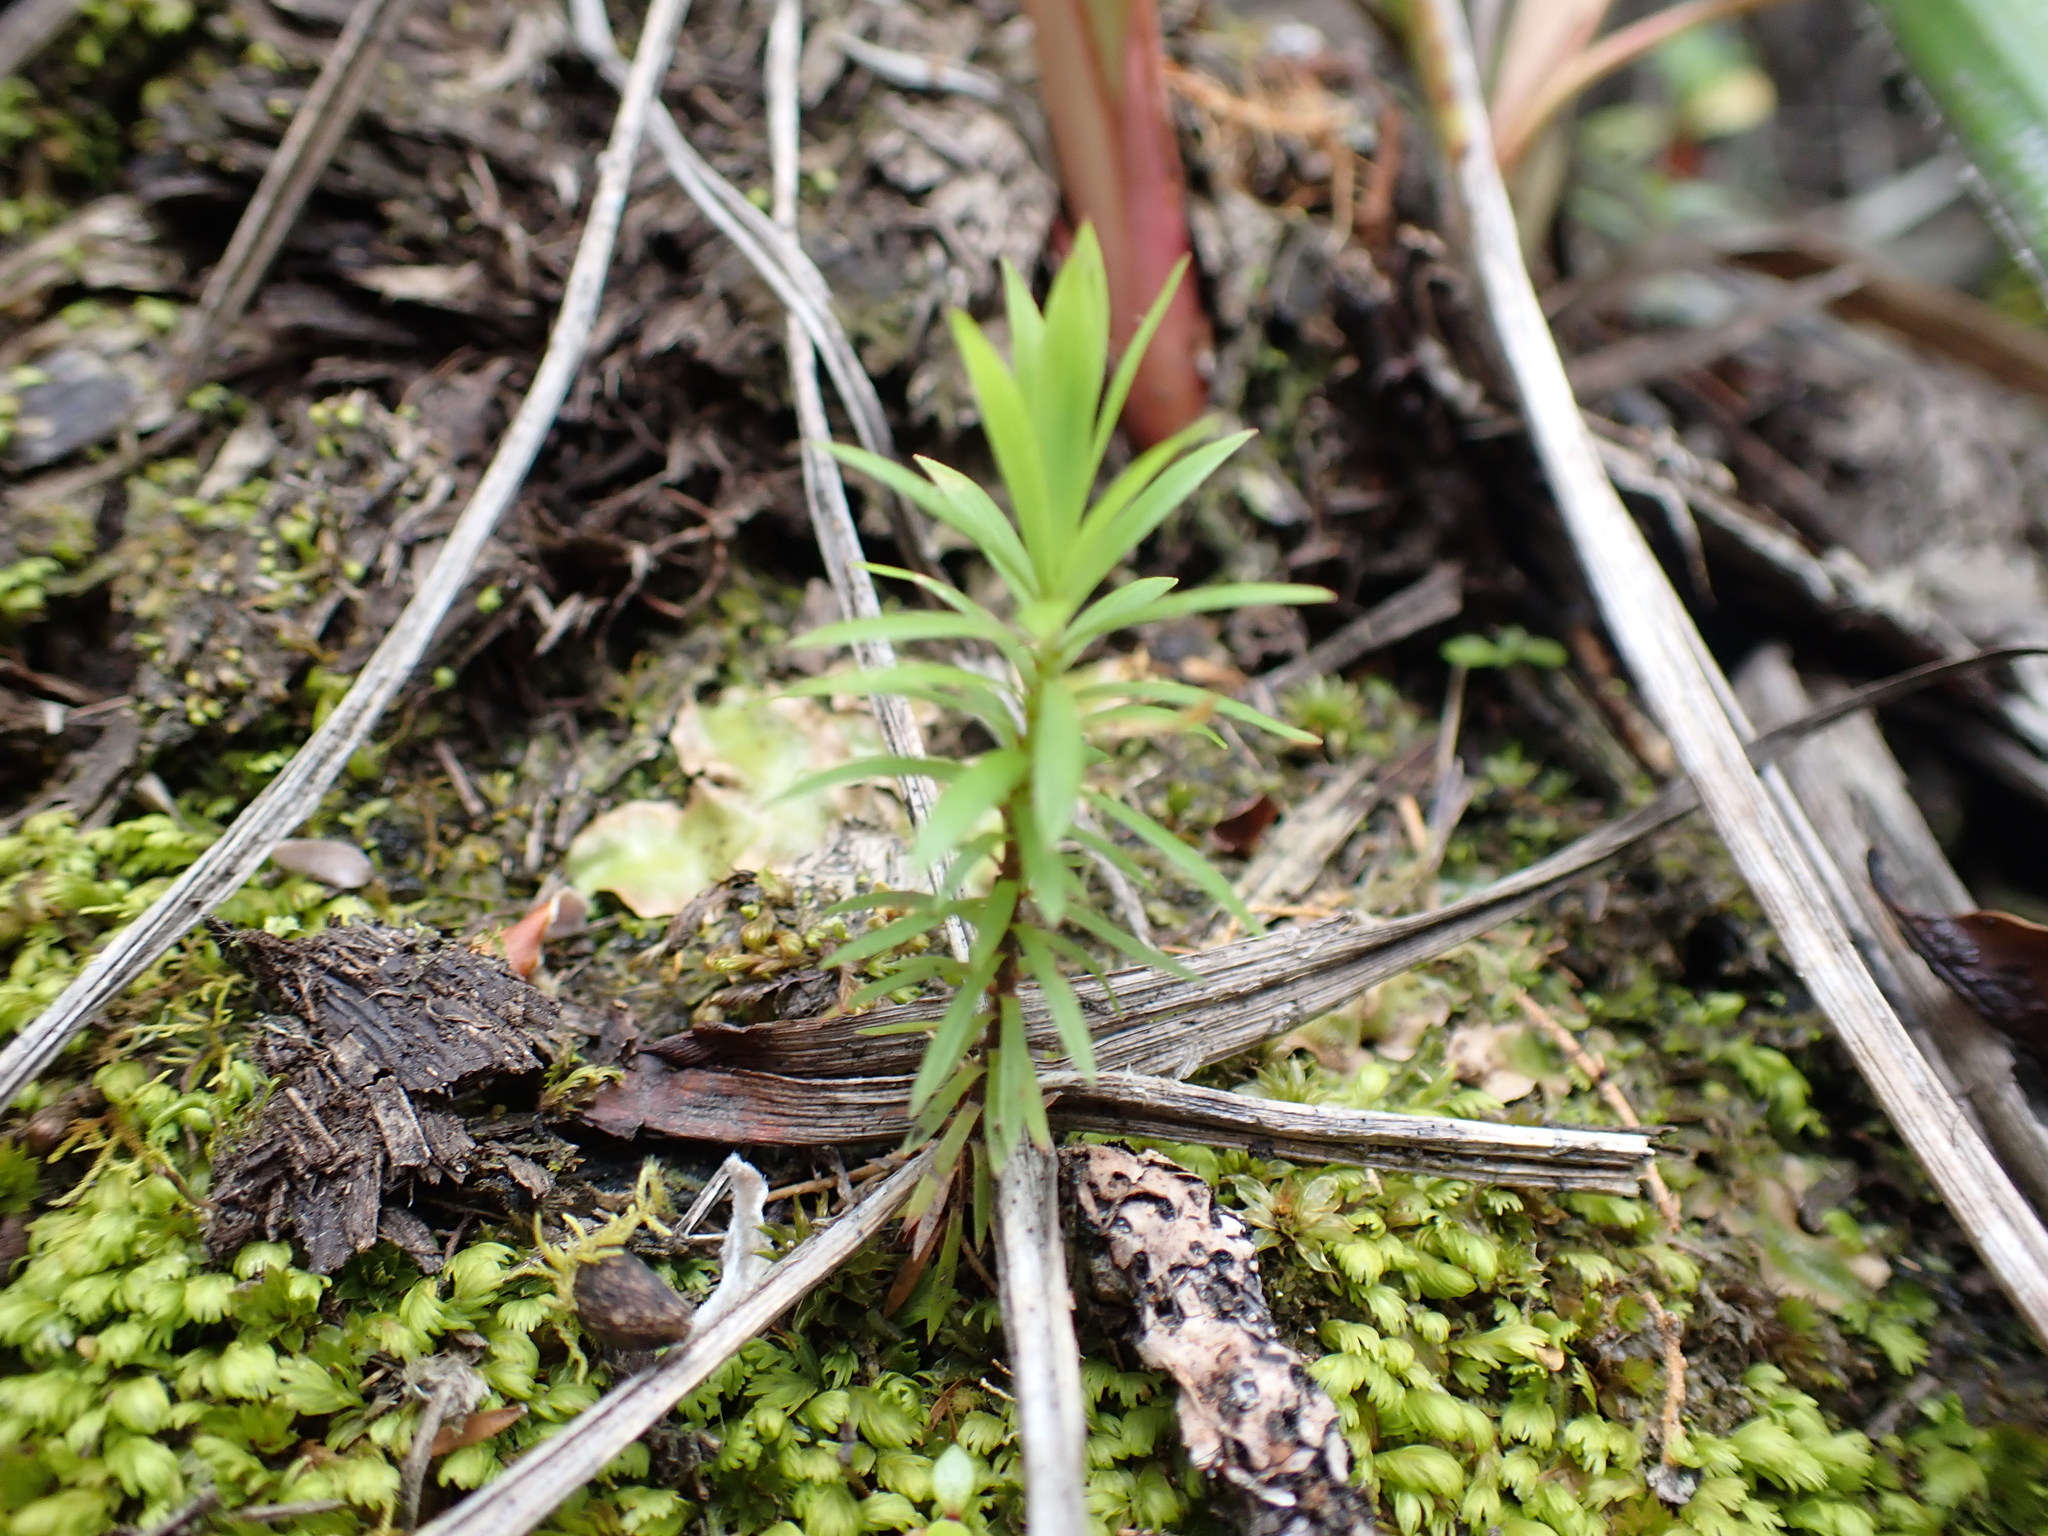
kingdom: Plantae
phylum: Tracheophyta
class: Magnoliopsida
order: Ericales
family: Ericaceae
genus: Leucopogon
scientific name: Leucopogon fasciculatus
